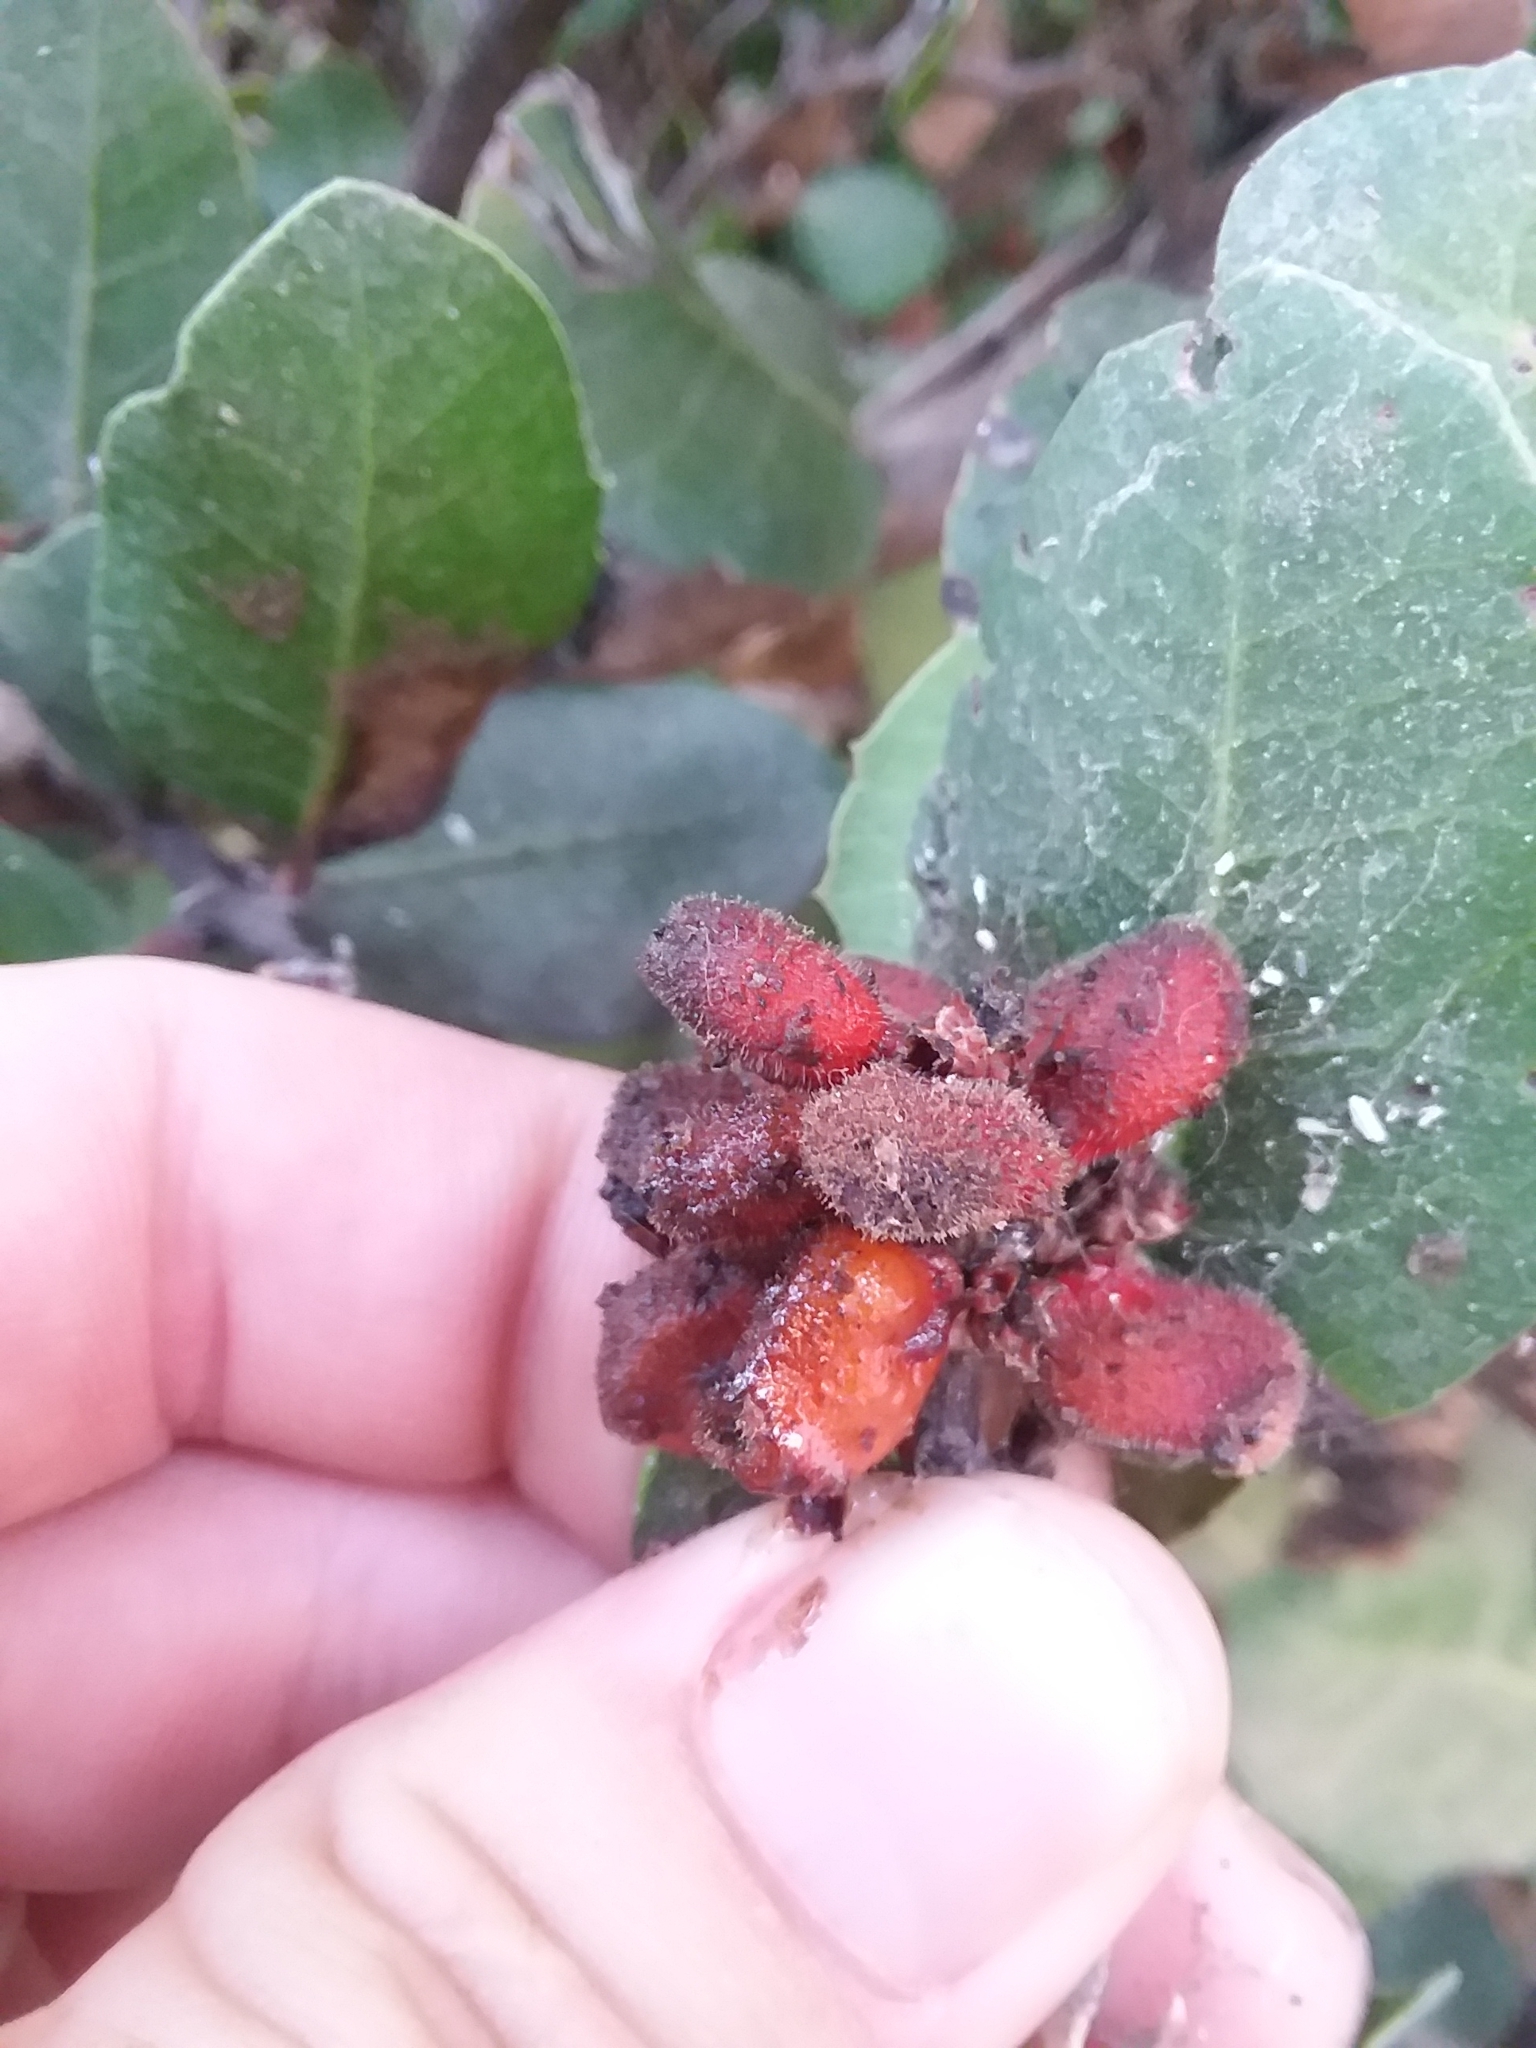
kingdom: Plantae
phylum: Tracheophyta
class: Magnoliopsida
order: Sapindales
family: Anacardiaceae
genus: Rhus
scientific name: Rhus integrifolia
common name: Lemonade sumac
